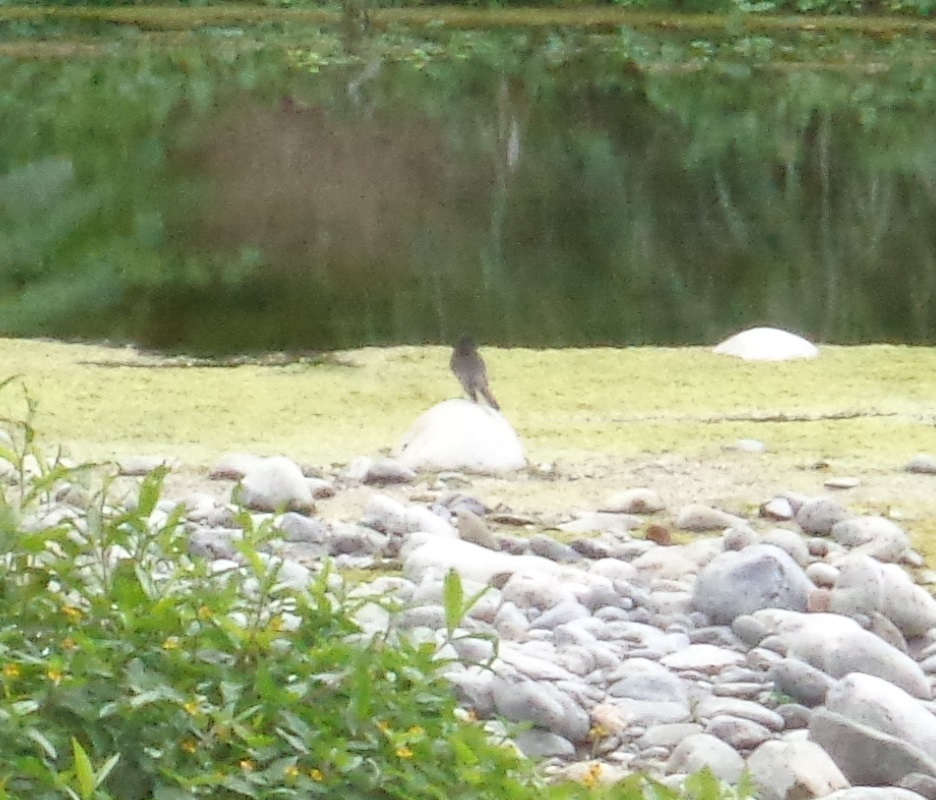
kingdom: Animalia
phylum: Chordata
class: Aves
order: Passeriformes
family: Tyrannidae
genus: Sayornis
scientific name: Sayornis nigricans
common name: Black phoebe
